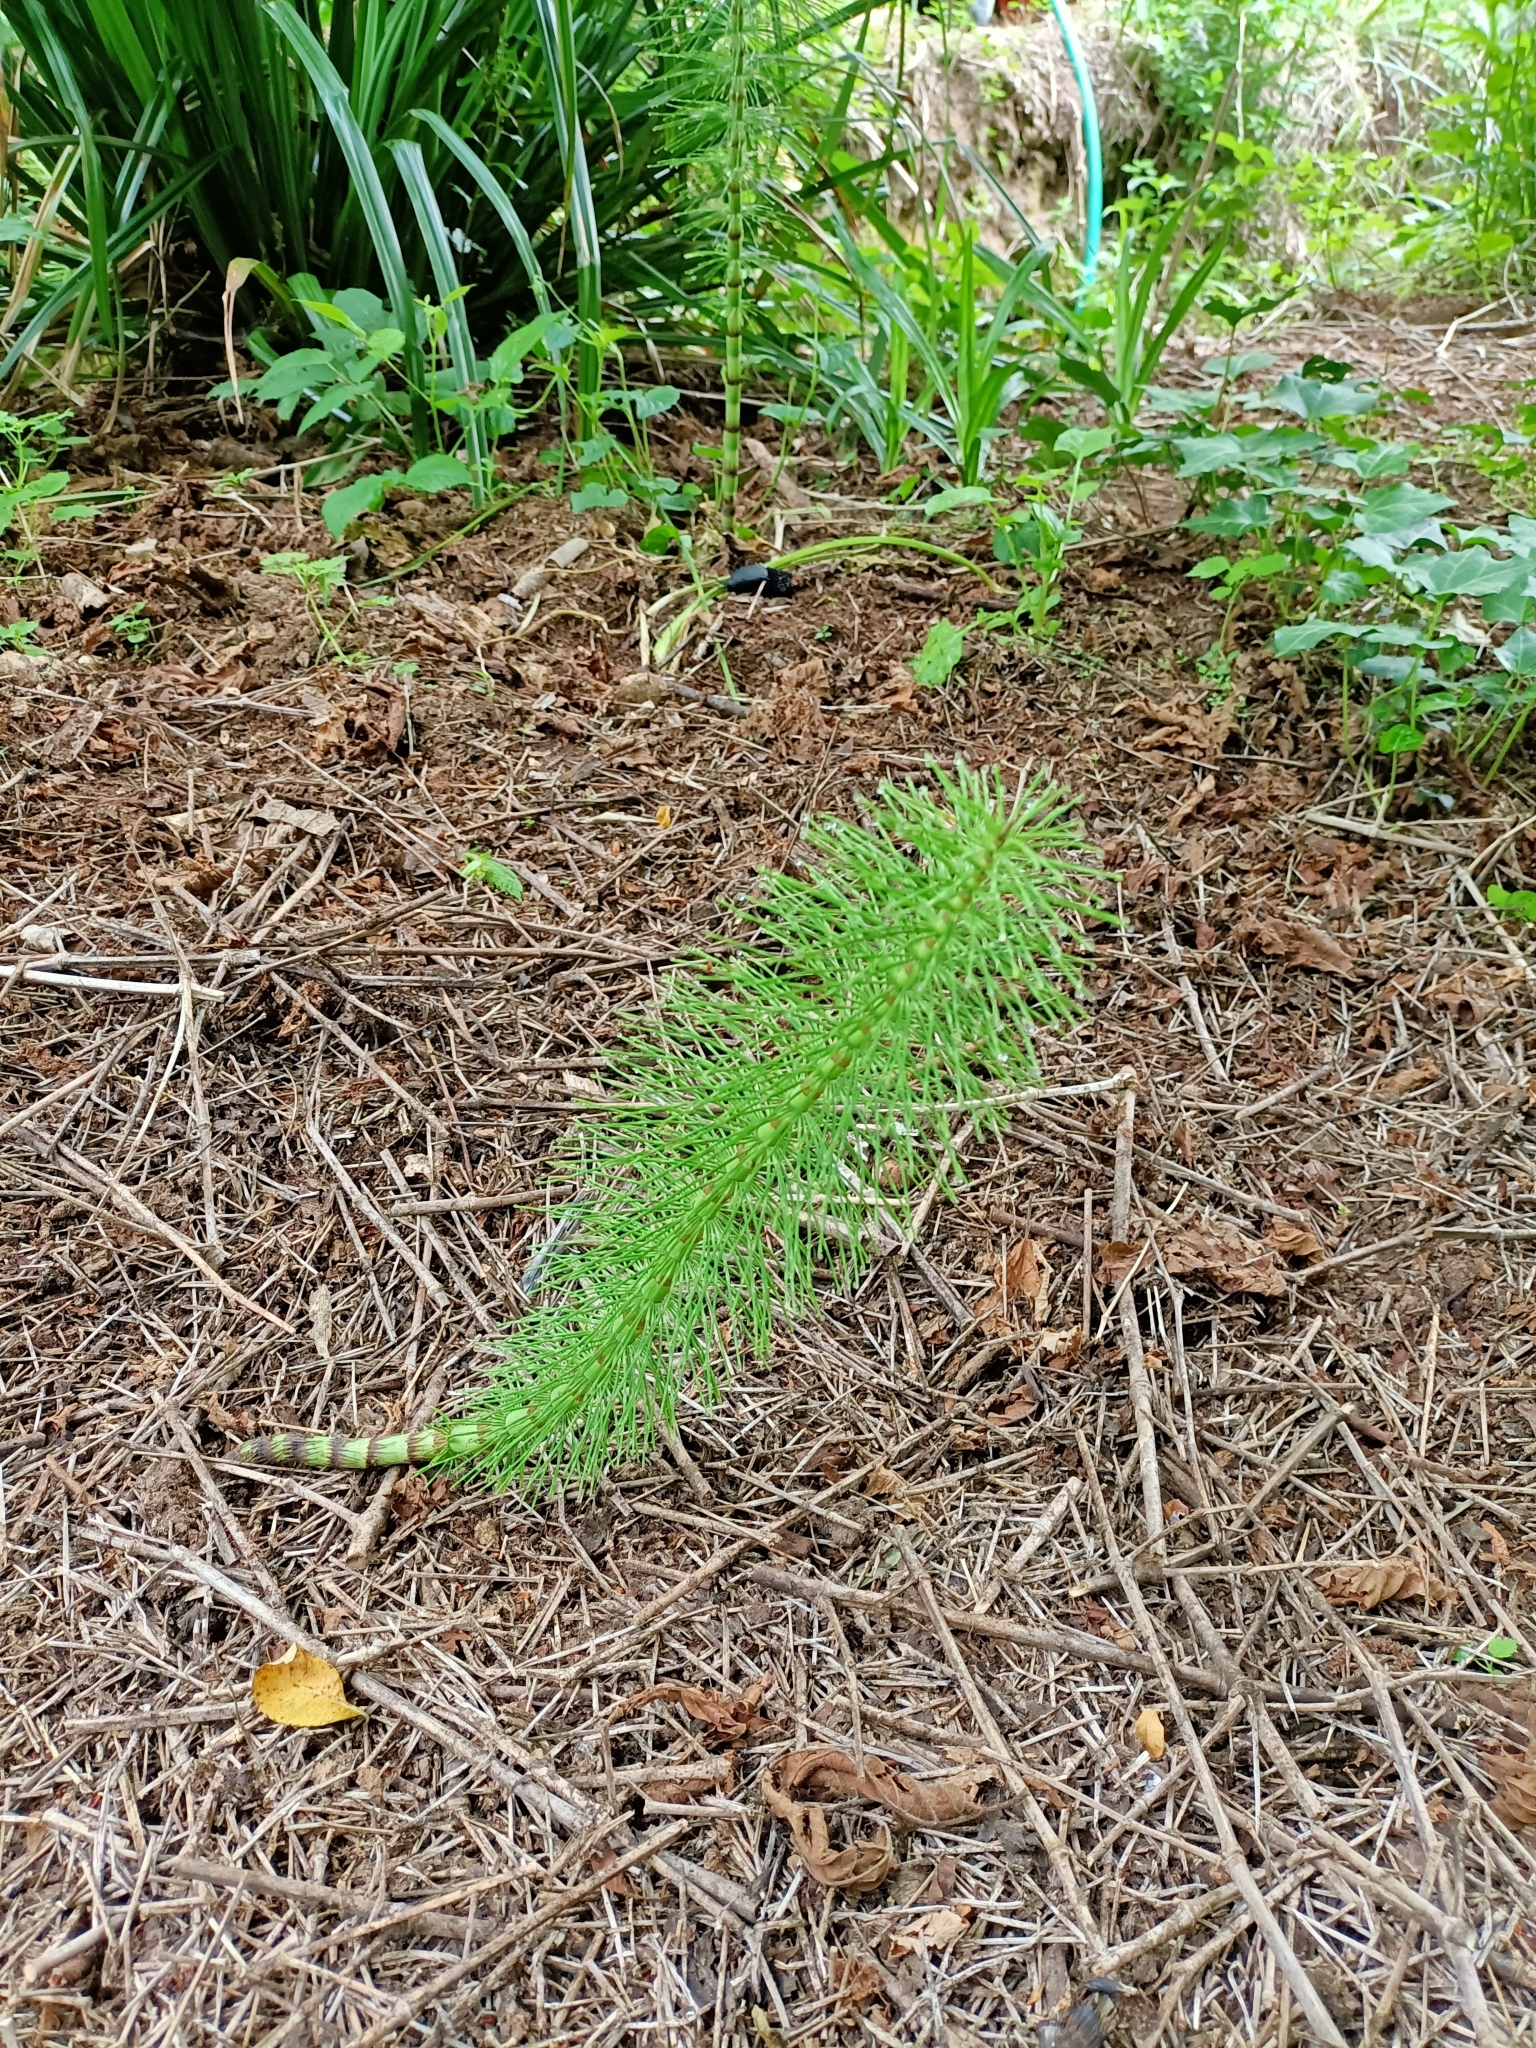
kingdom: Plantae
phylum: Tracheophyta
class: Polypodiopsida
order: Equisetales
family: Equisetaceae
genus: Equisetum
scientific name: Equisetum telmateia
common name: Great horsetail
